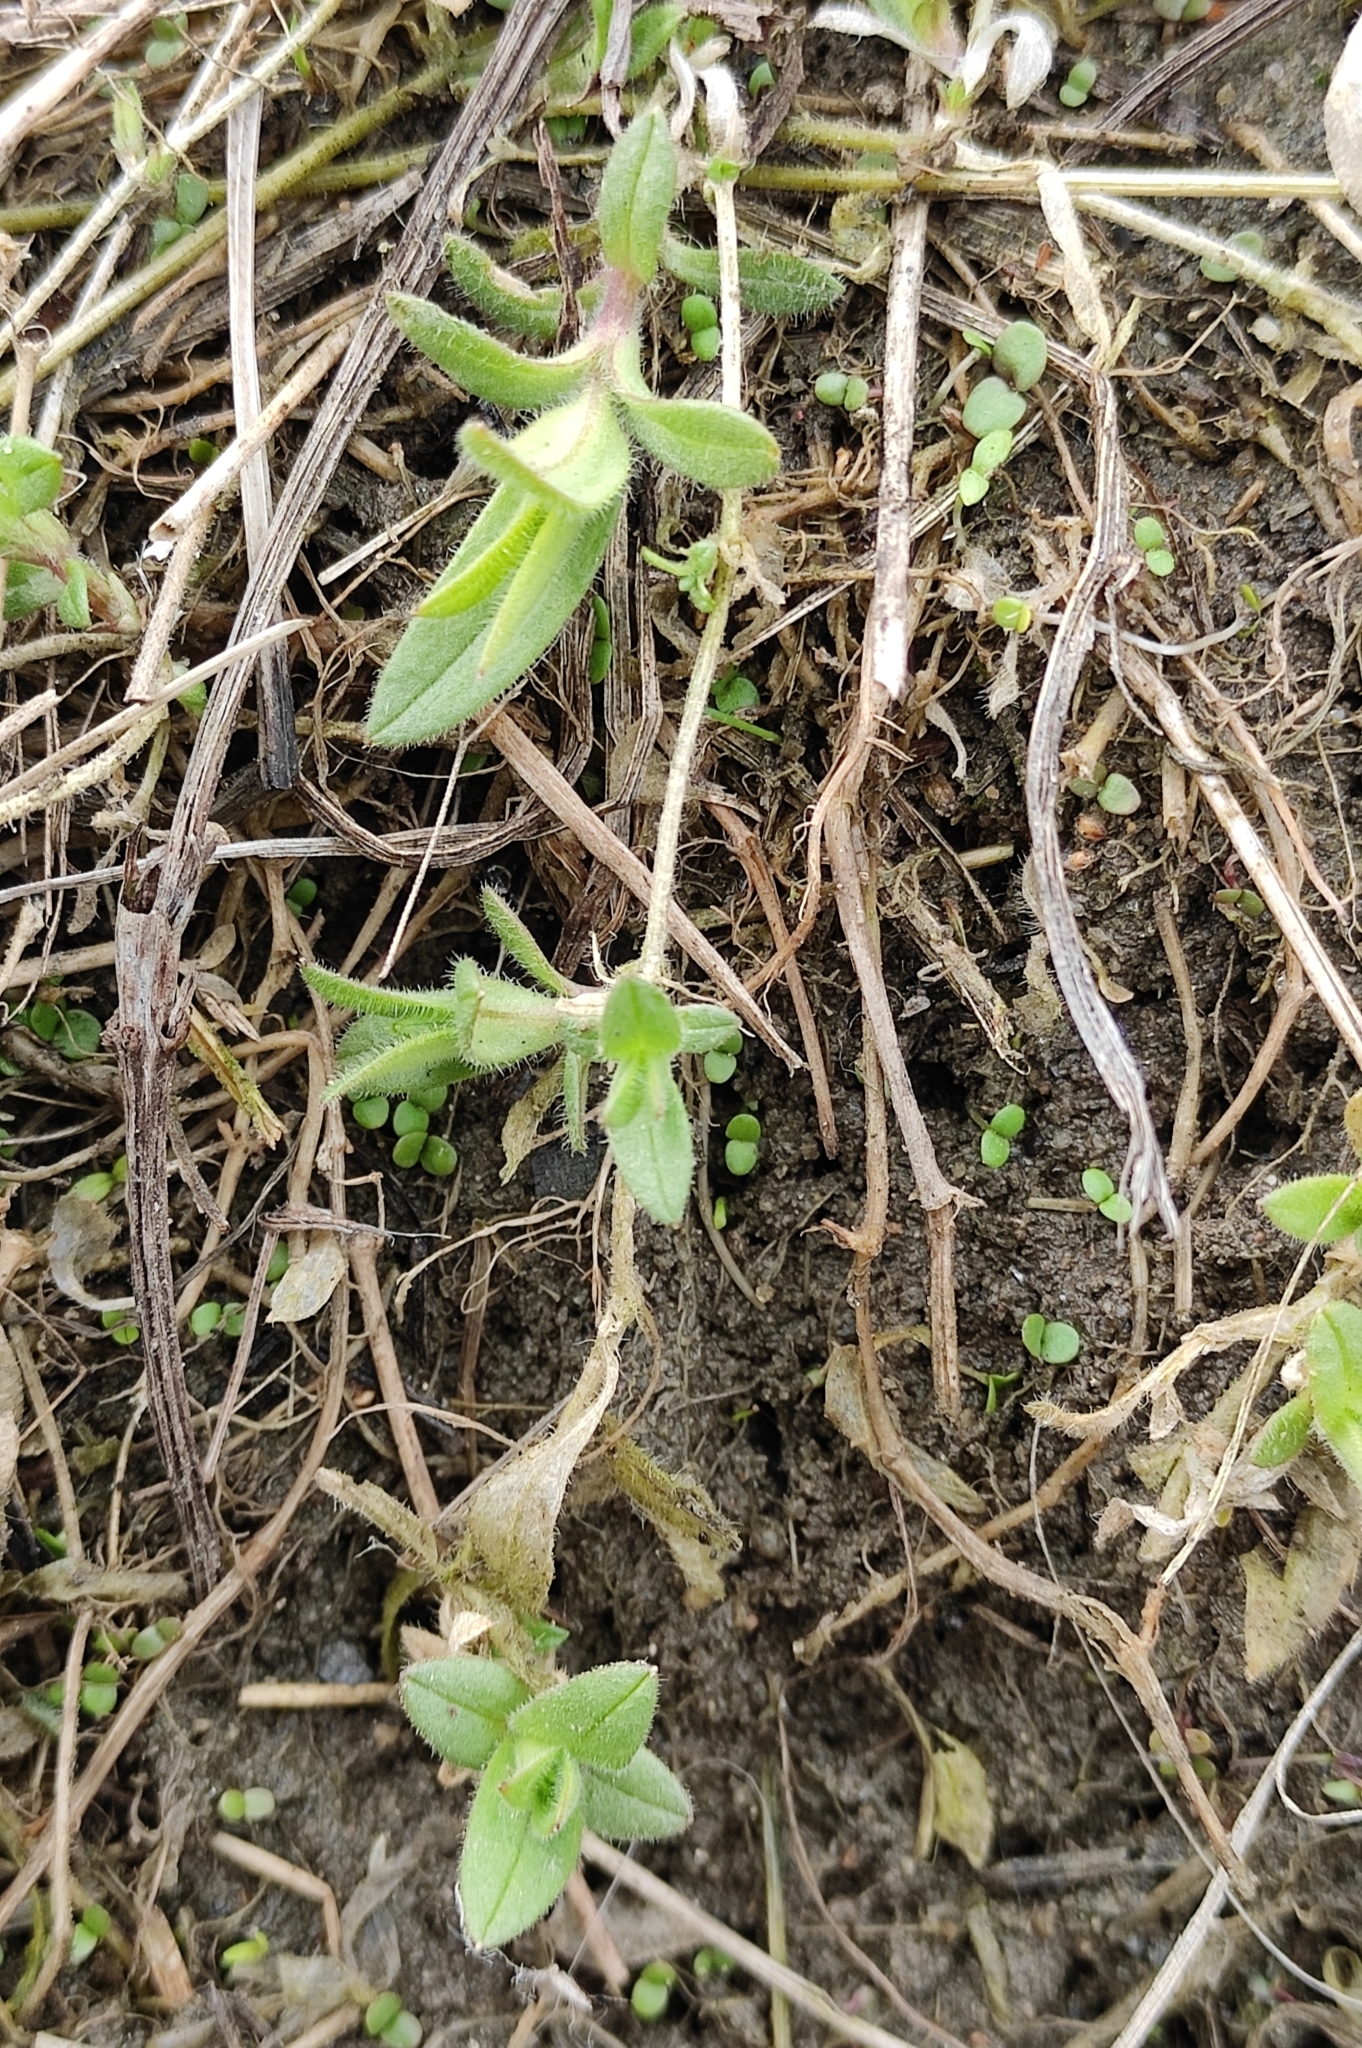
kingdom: Plantae
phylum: Tracheophyta
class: Magnoliopsida
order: Caryophyllales
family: Caryophyllaceae
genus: Cerastium
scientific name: Cerastium holosteoides
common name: Big chickweed
